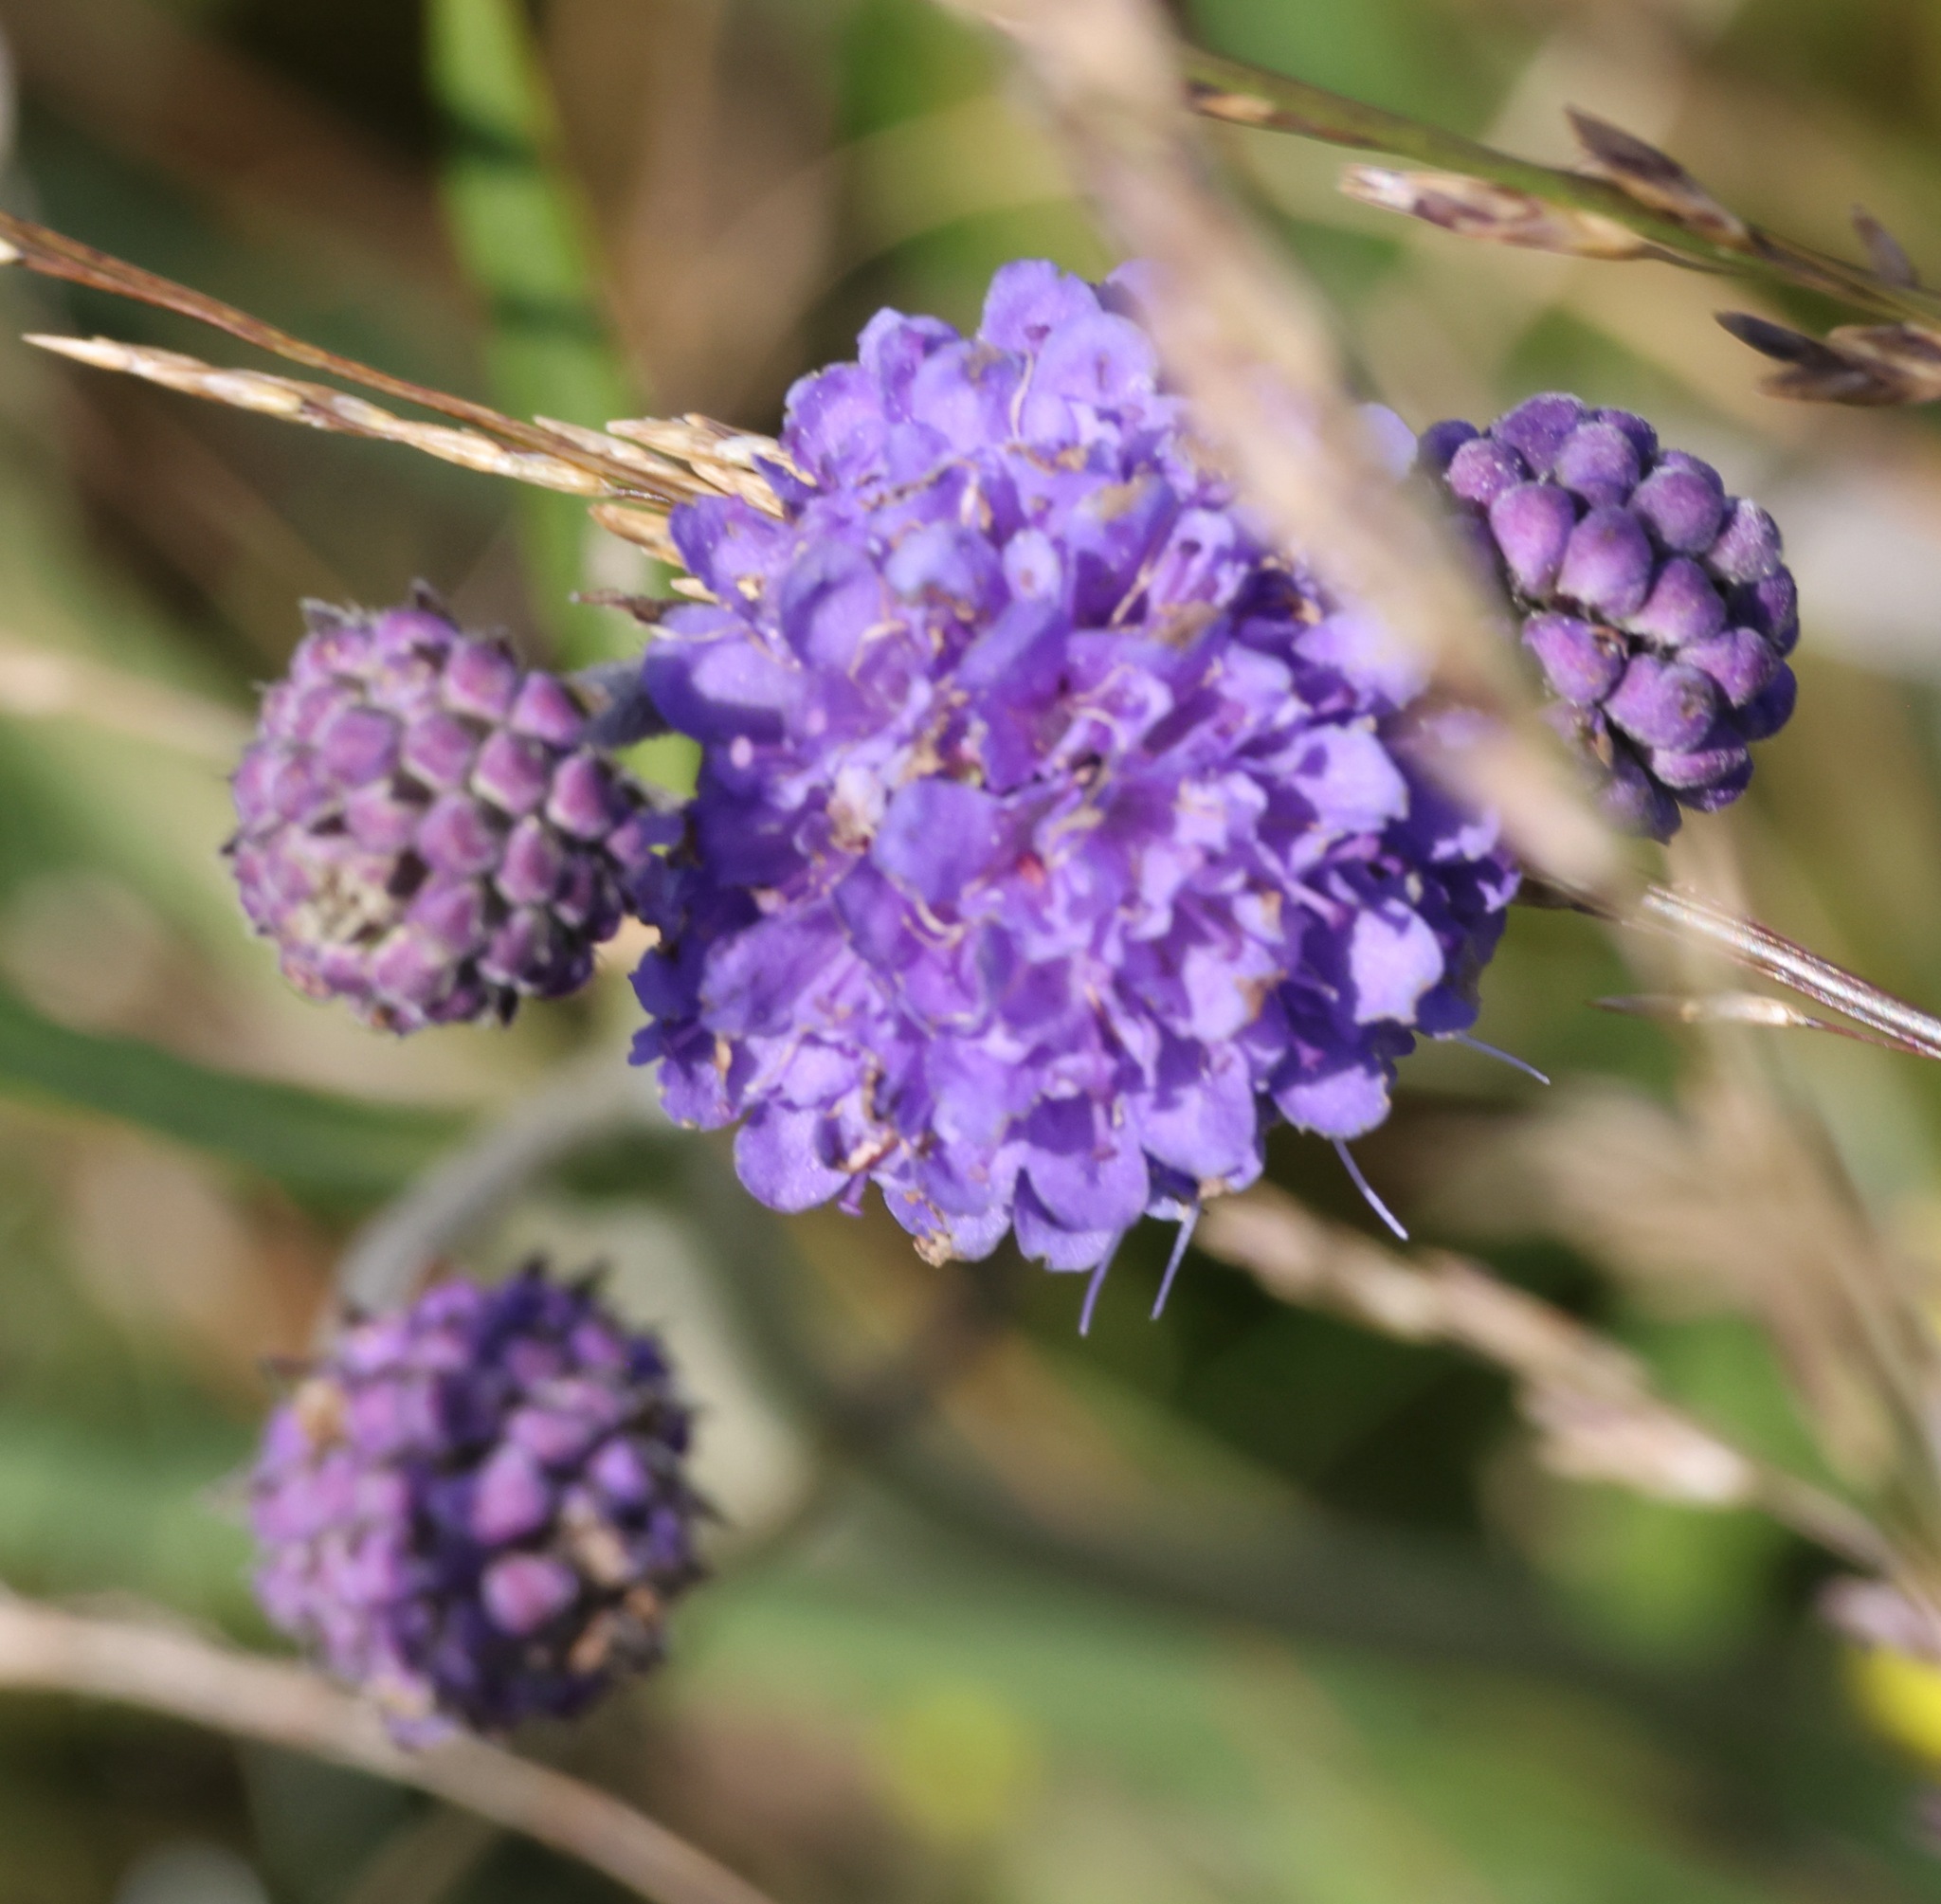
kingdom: Plantae
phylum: Tracheophyta
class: Magnoliopsida
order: Dipsacales
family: Caprifoliaceae
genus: Succisa
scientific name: Succisa pratensis
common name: Devil's-bit
